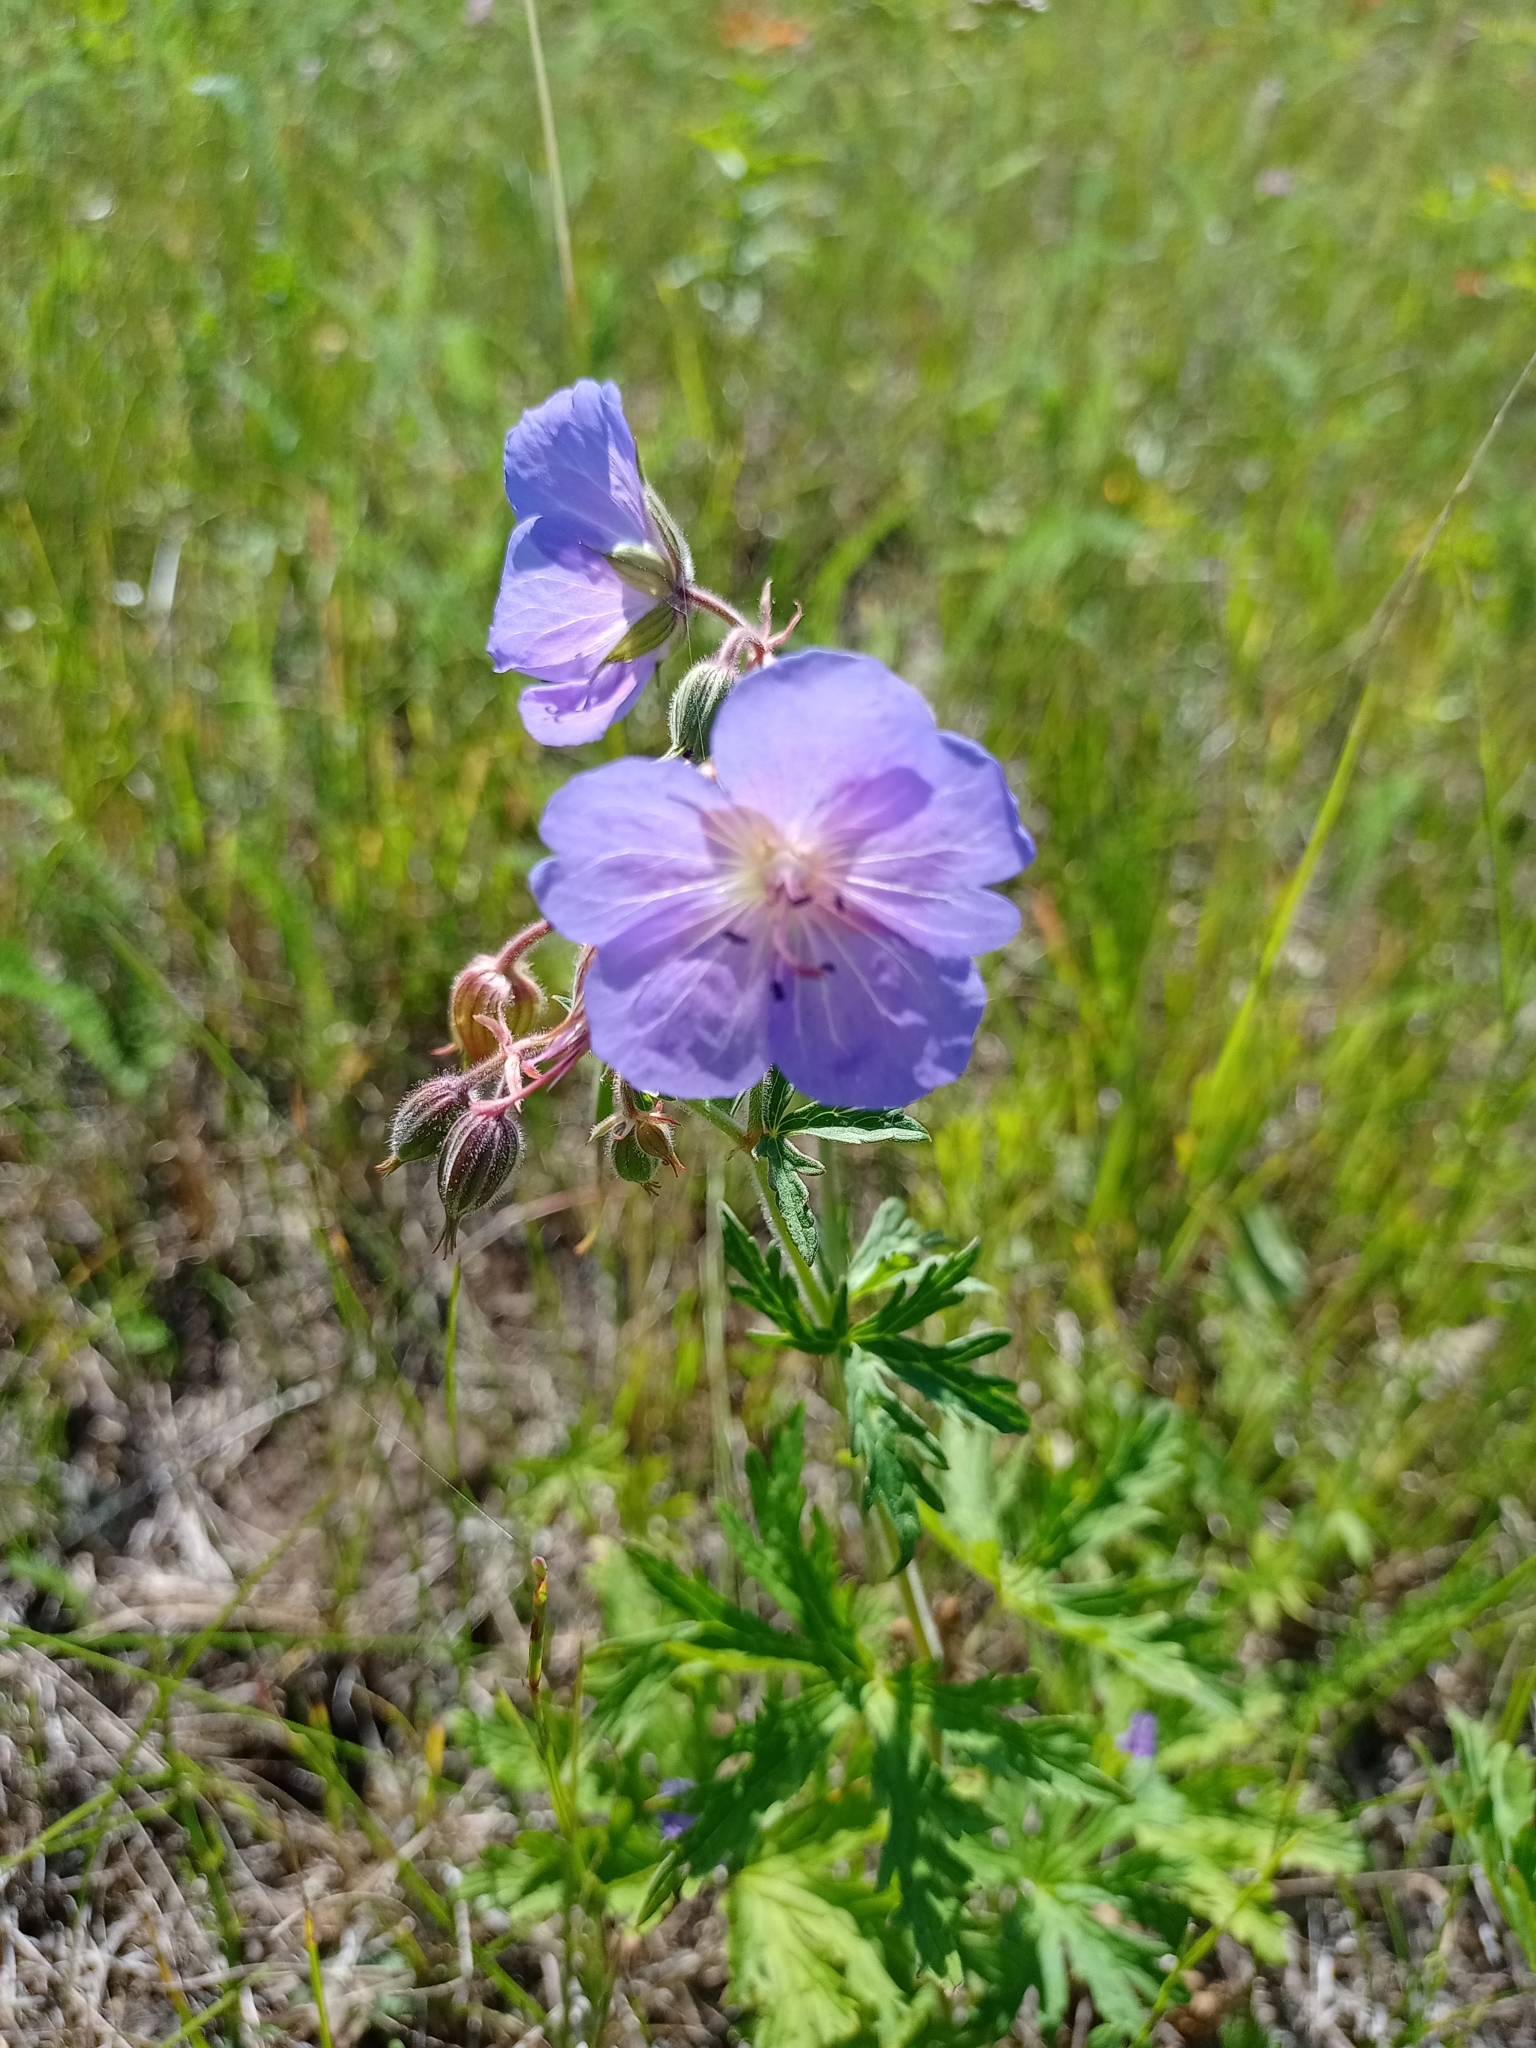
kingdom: Plantae
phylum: Tracheophyta
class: Magnoliopsida
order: Geraniales
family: Geraniaceae
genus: Geranium
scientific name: Geranium pratense
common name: Meadow crane's-bill
